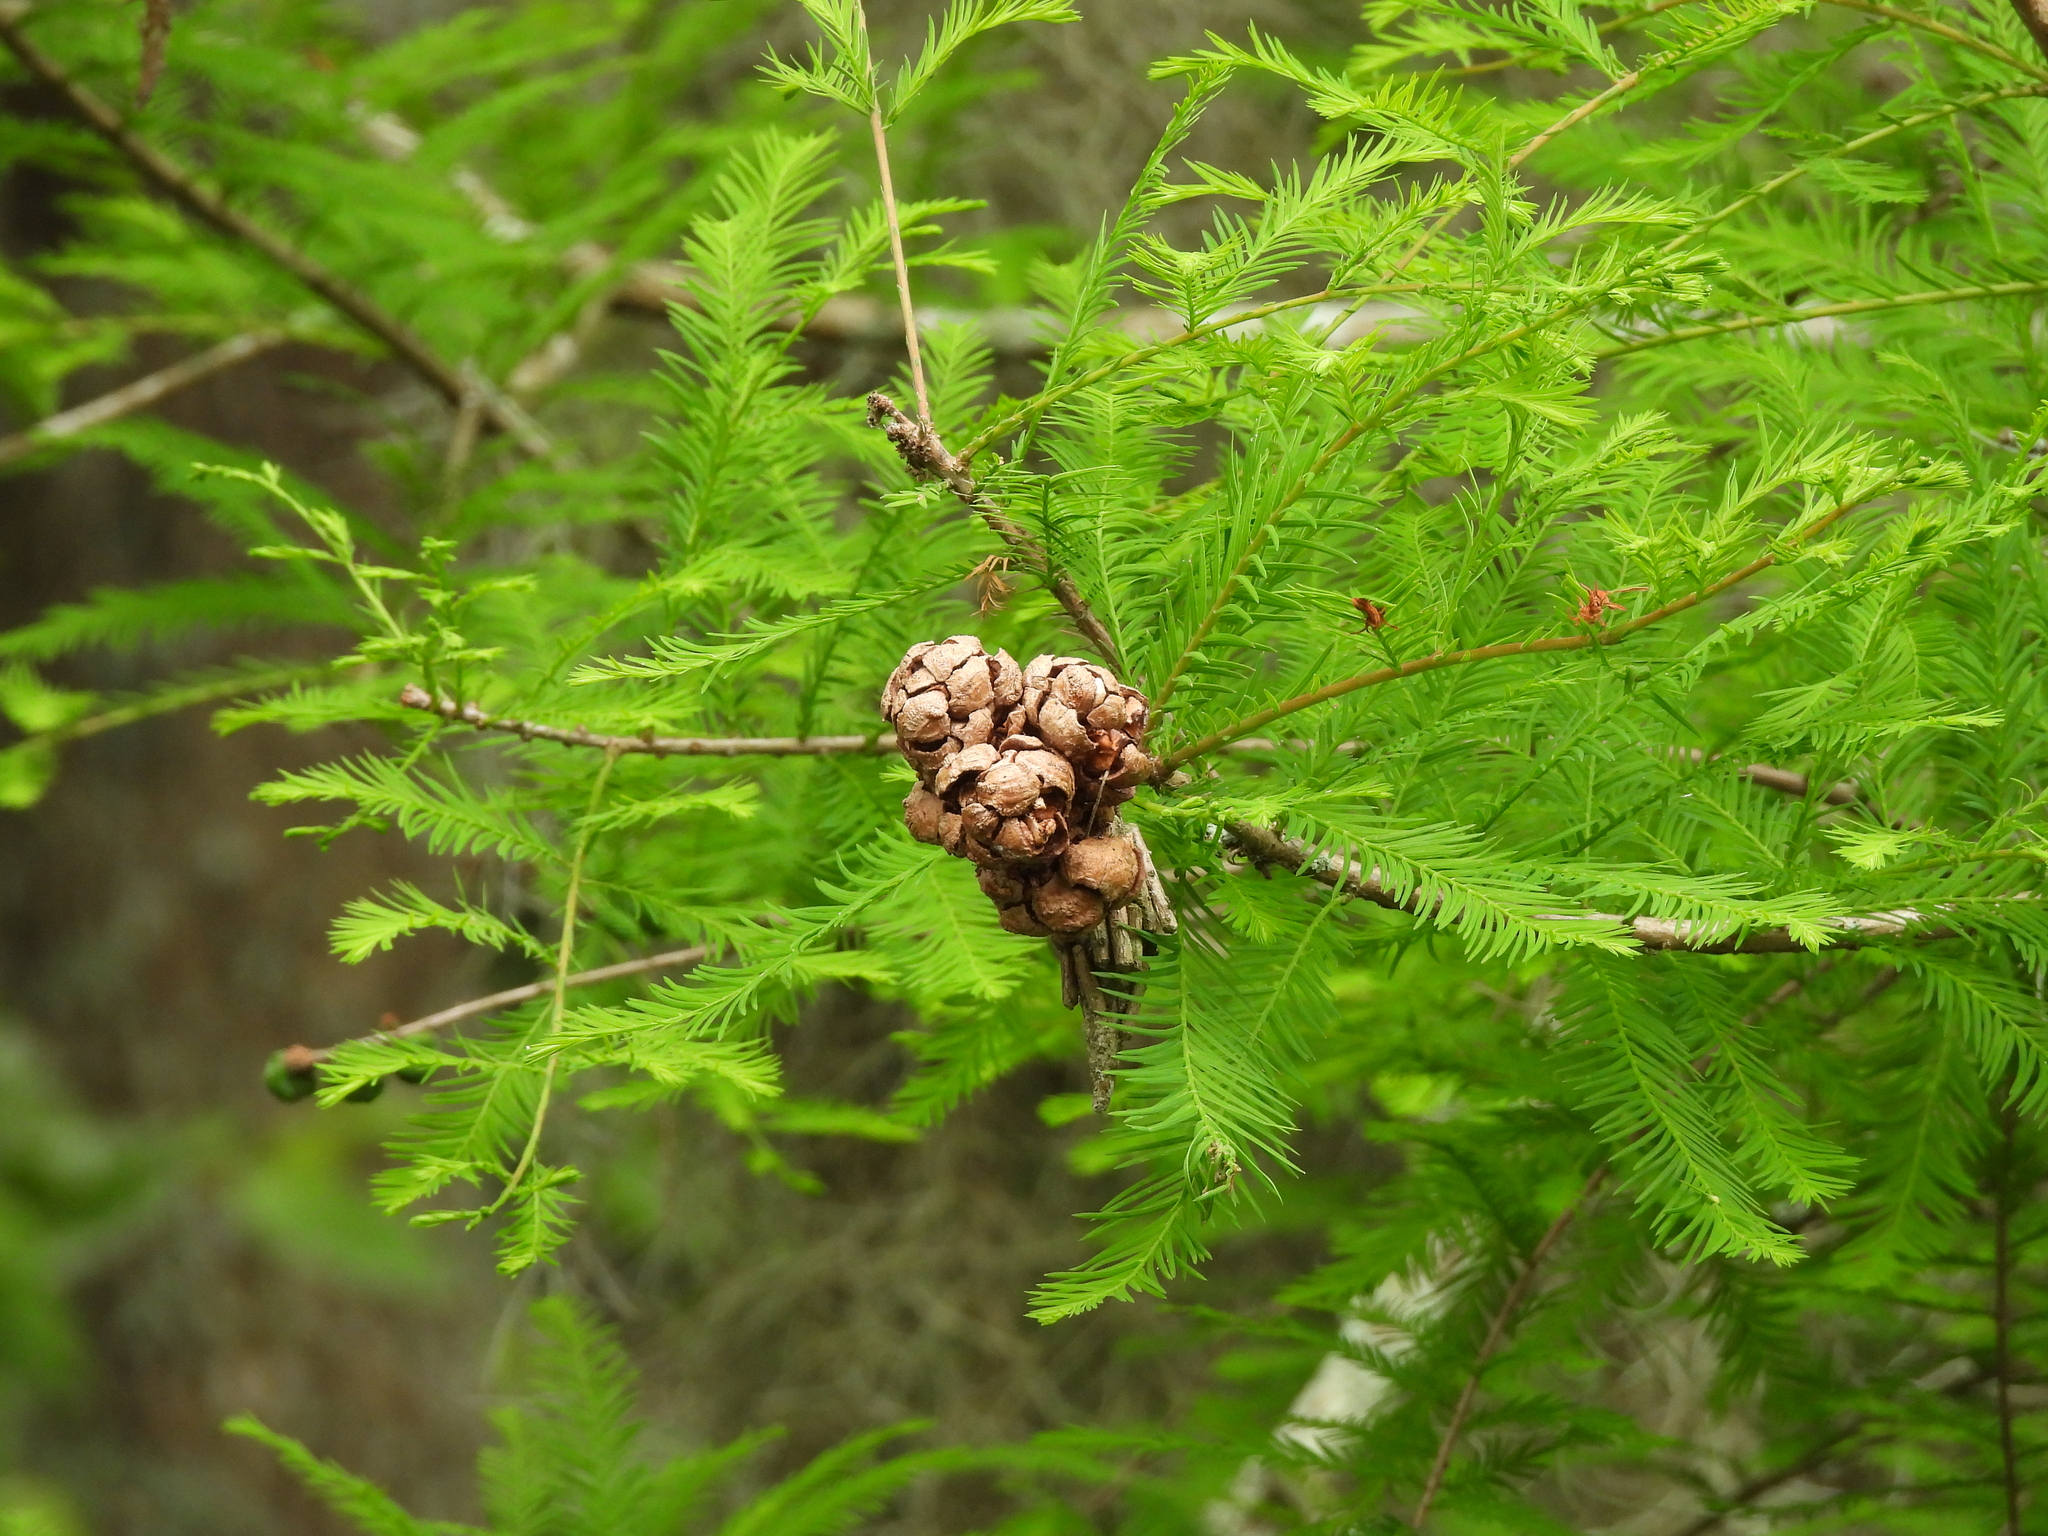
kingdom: Plantae
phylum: Tracheophyta
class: Pinopsida
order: Pinales
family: Cupressaceae
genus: Taxodium
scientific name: Taxodium distichum
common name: Bald cypress
